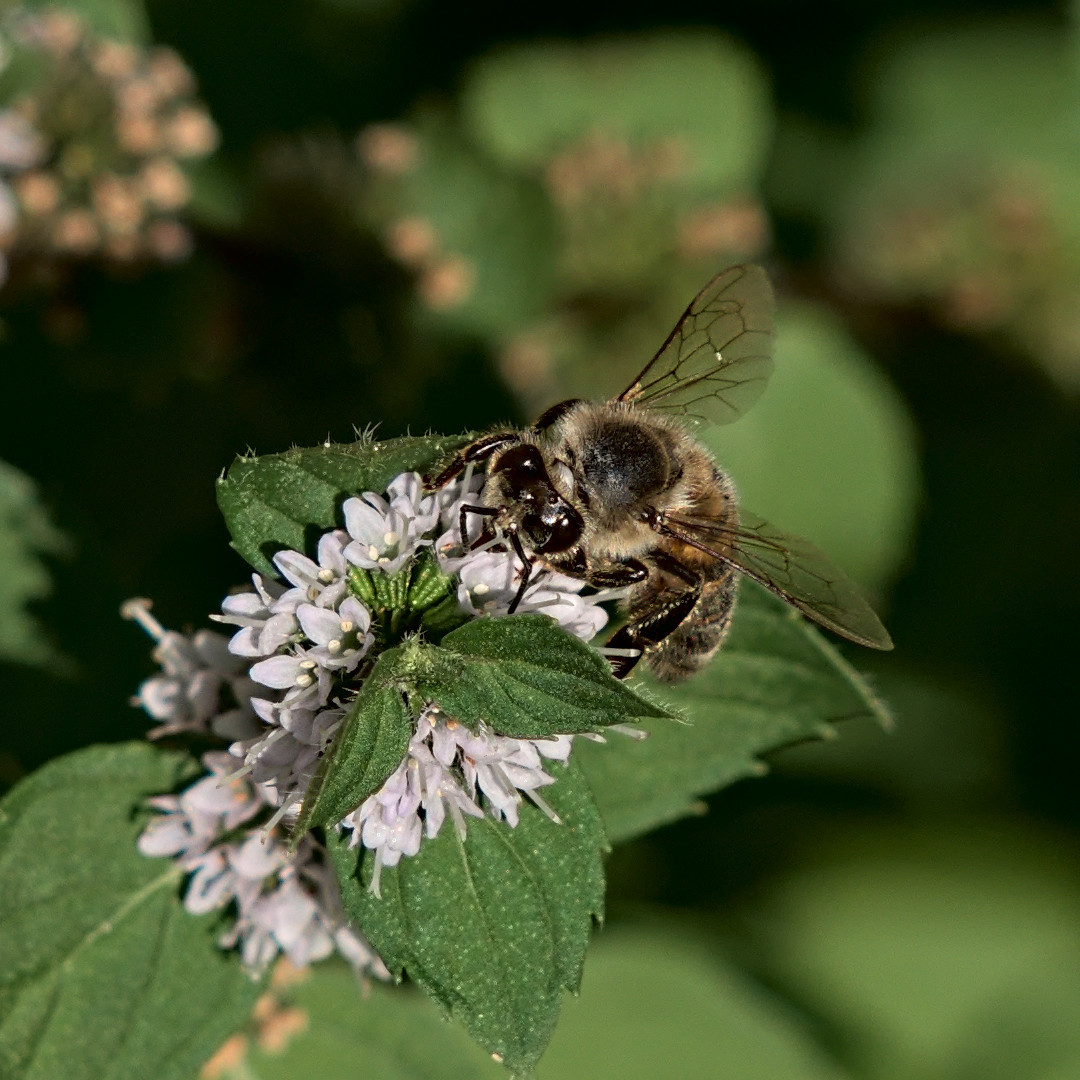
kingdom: Animalia
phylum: Arthropoda
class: Insecta
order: Hymenoptera
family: Apidae
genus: Apis
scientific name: Apis mellifera
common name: Honey bee
